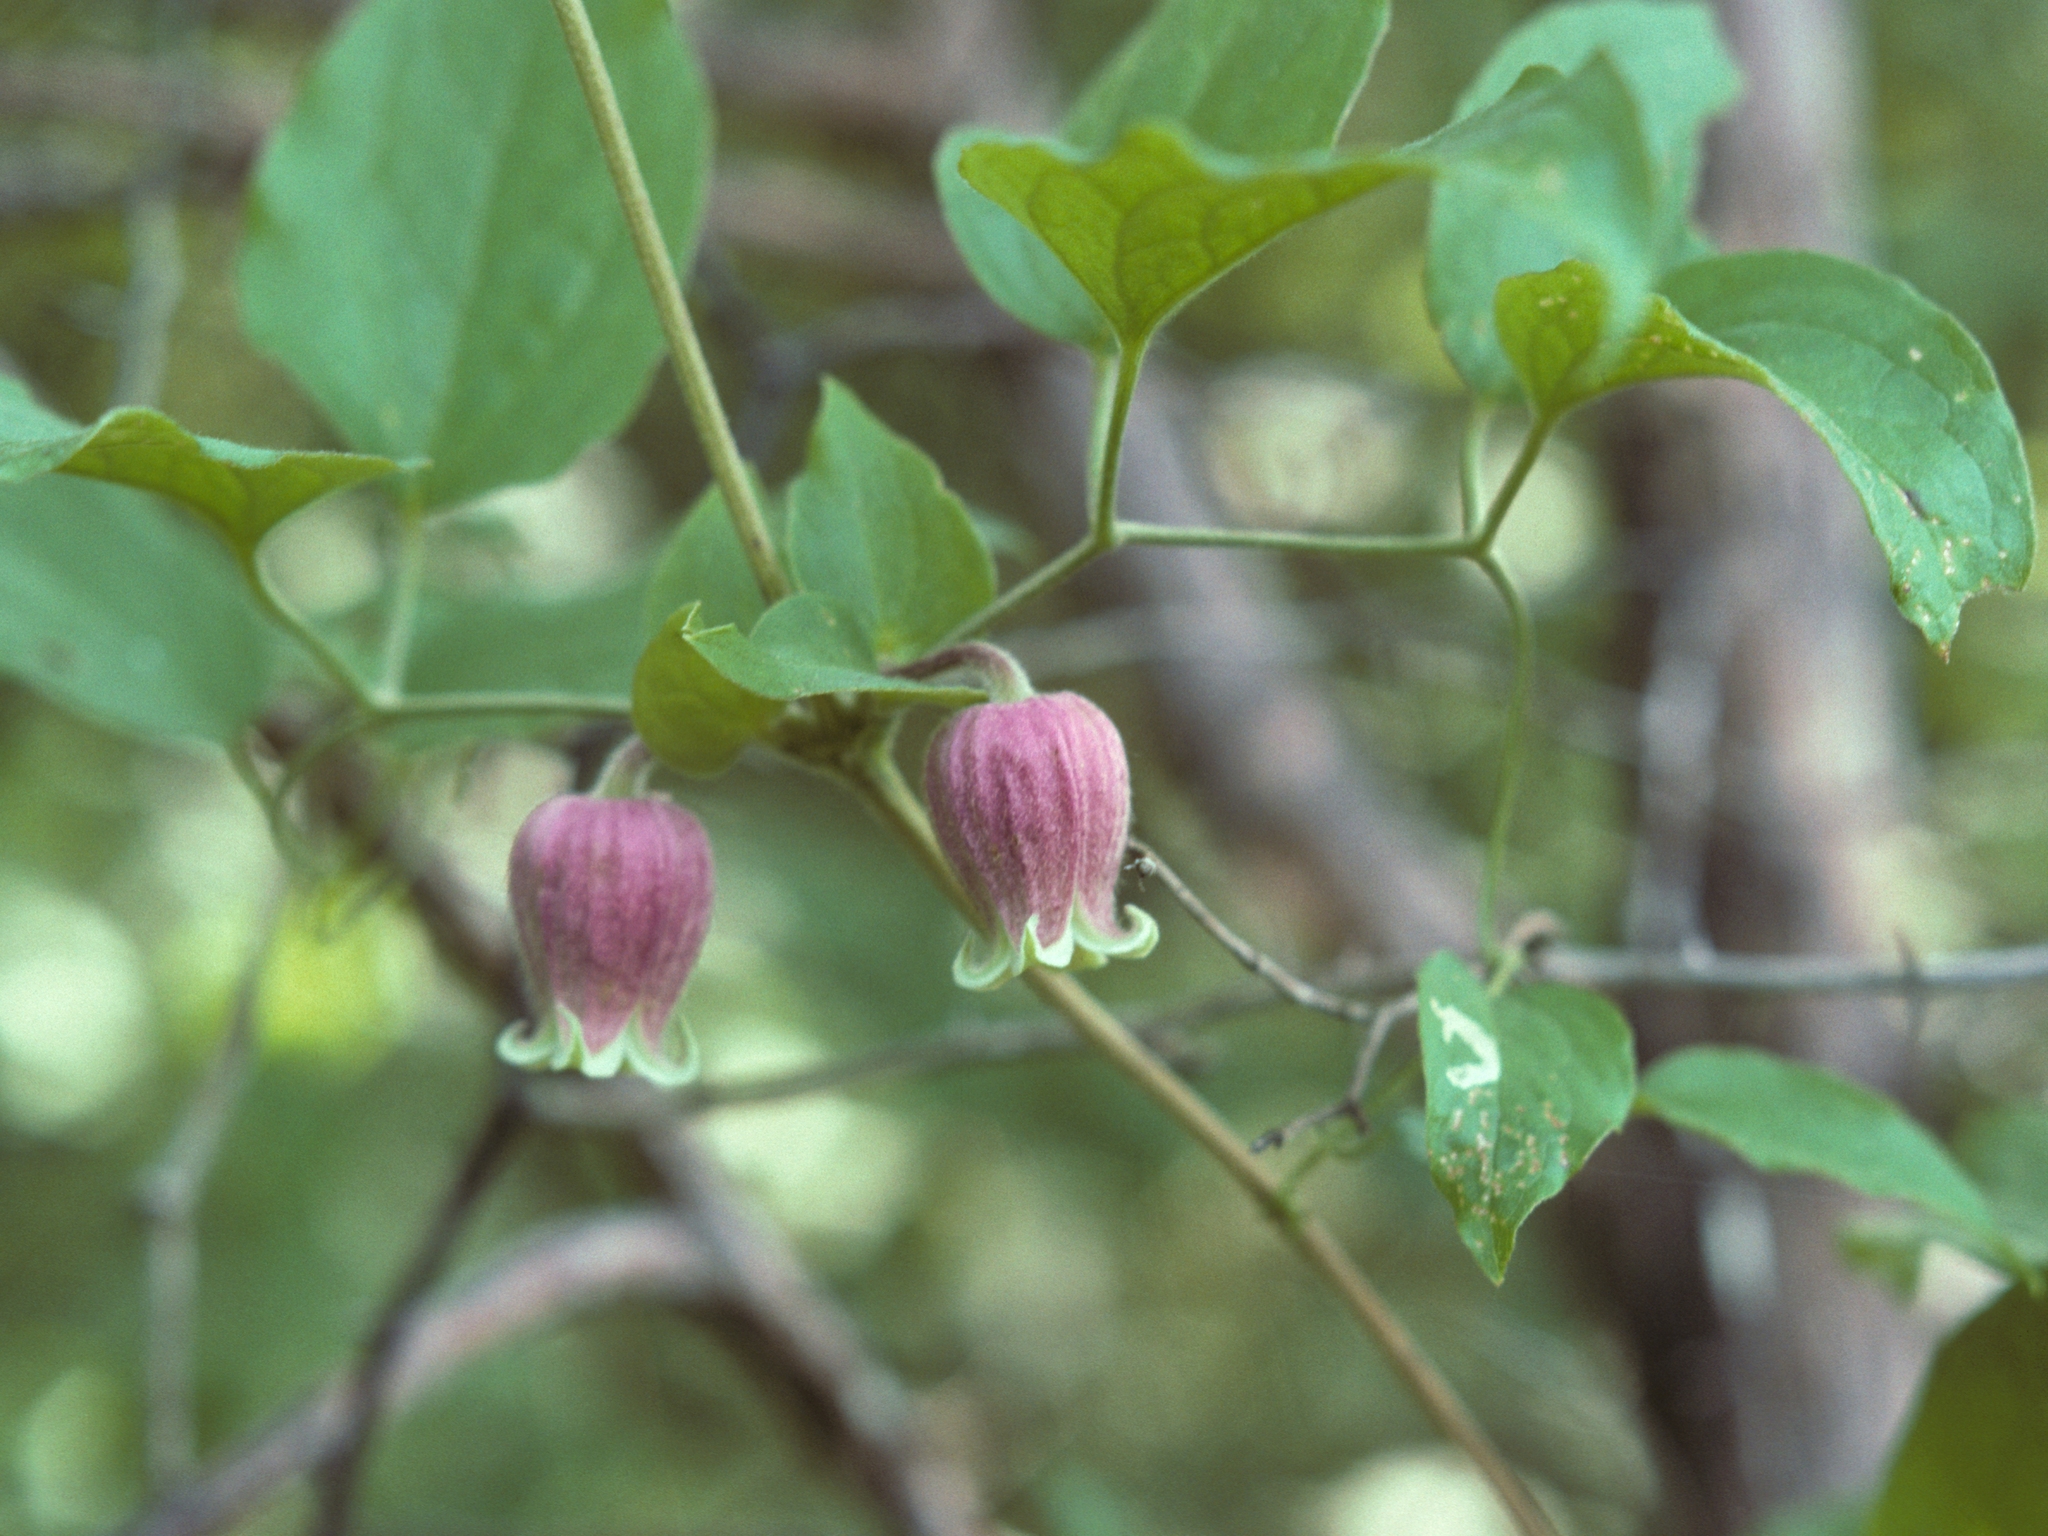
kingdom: Plantae
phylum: Tracheophyta
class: Magnoliopsida
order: Ranunculales
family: Ranunculaceae
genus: Clematis
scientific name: Clematis morefieldii
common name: Morefield's clematis
